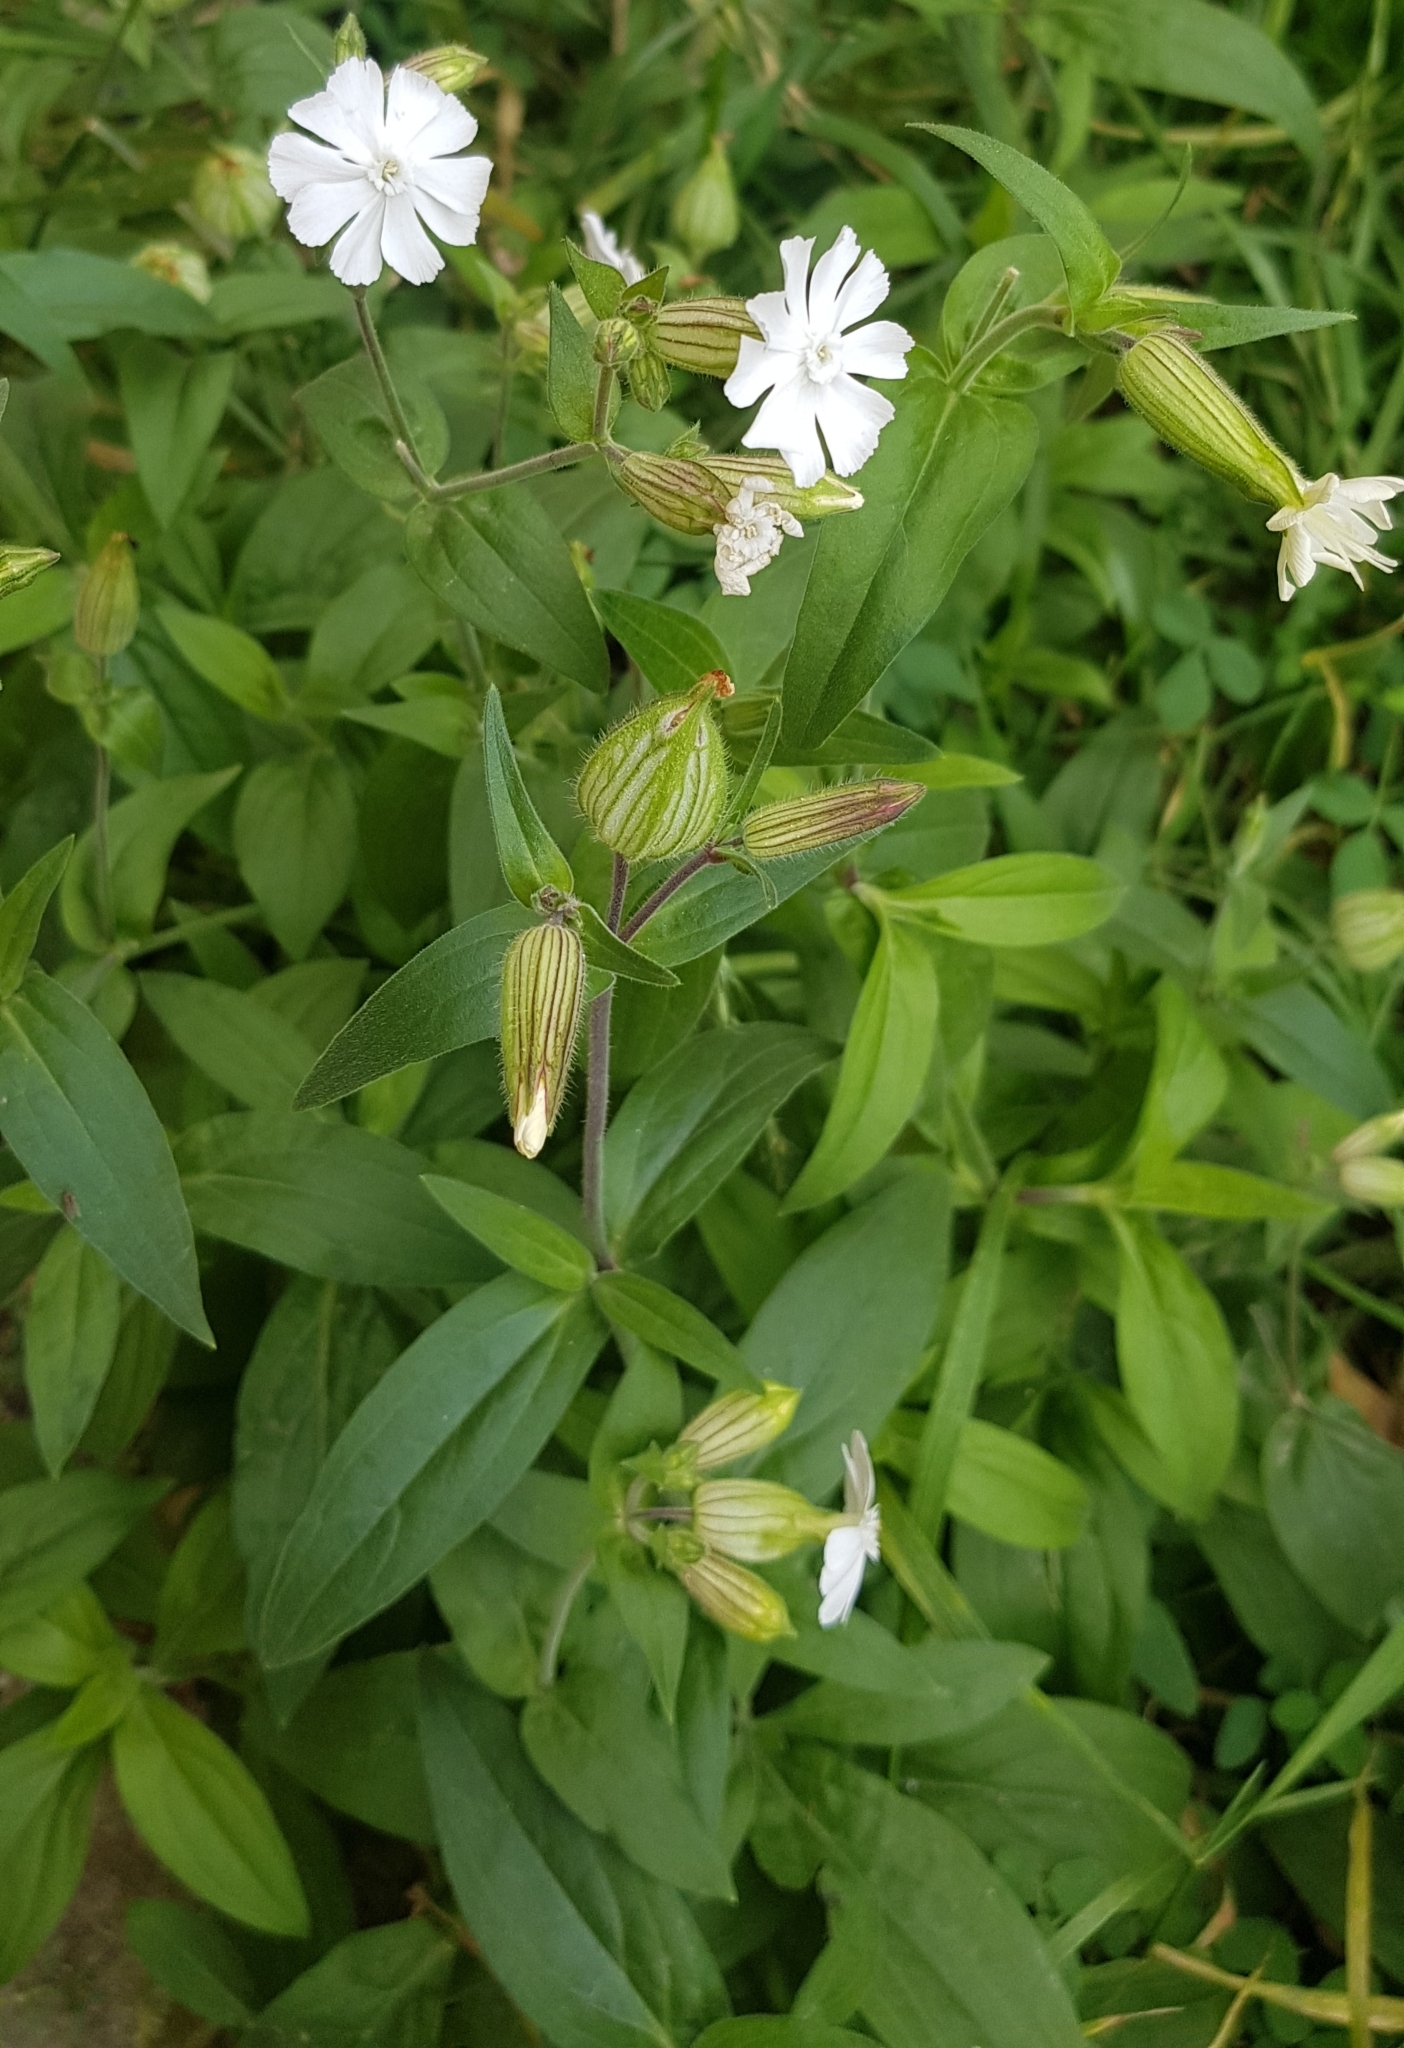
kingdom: Plantae
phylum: Tracheophyta
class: Magnoliopsida
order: Caryophyllales
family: Caryophyllaceae
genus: Silene
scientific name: Silene latifolia
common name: White campion
